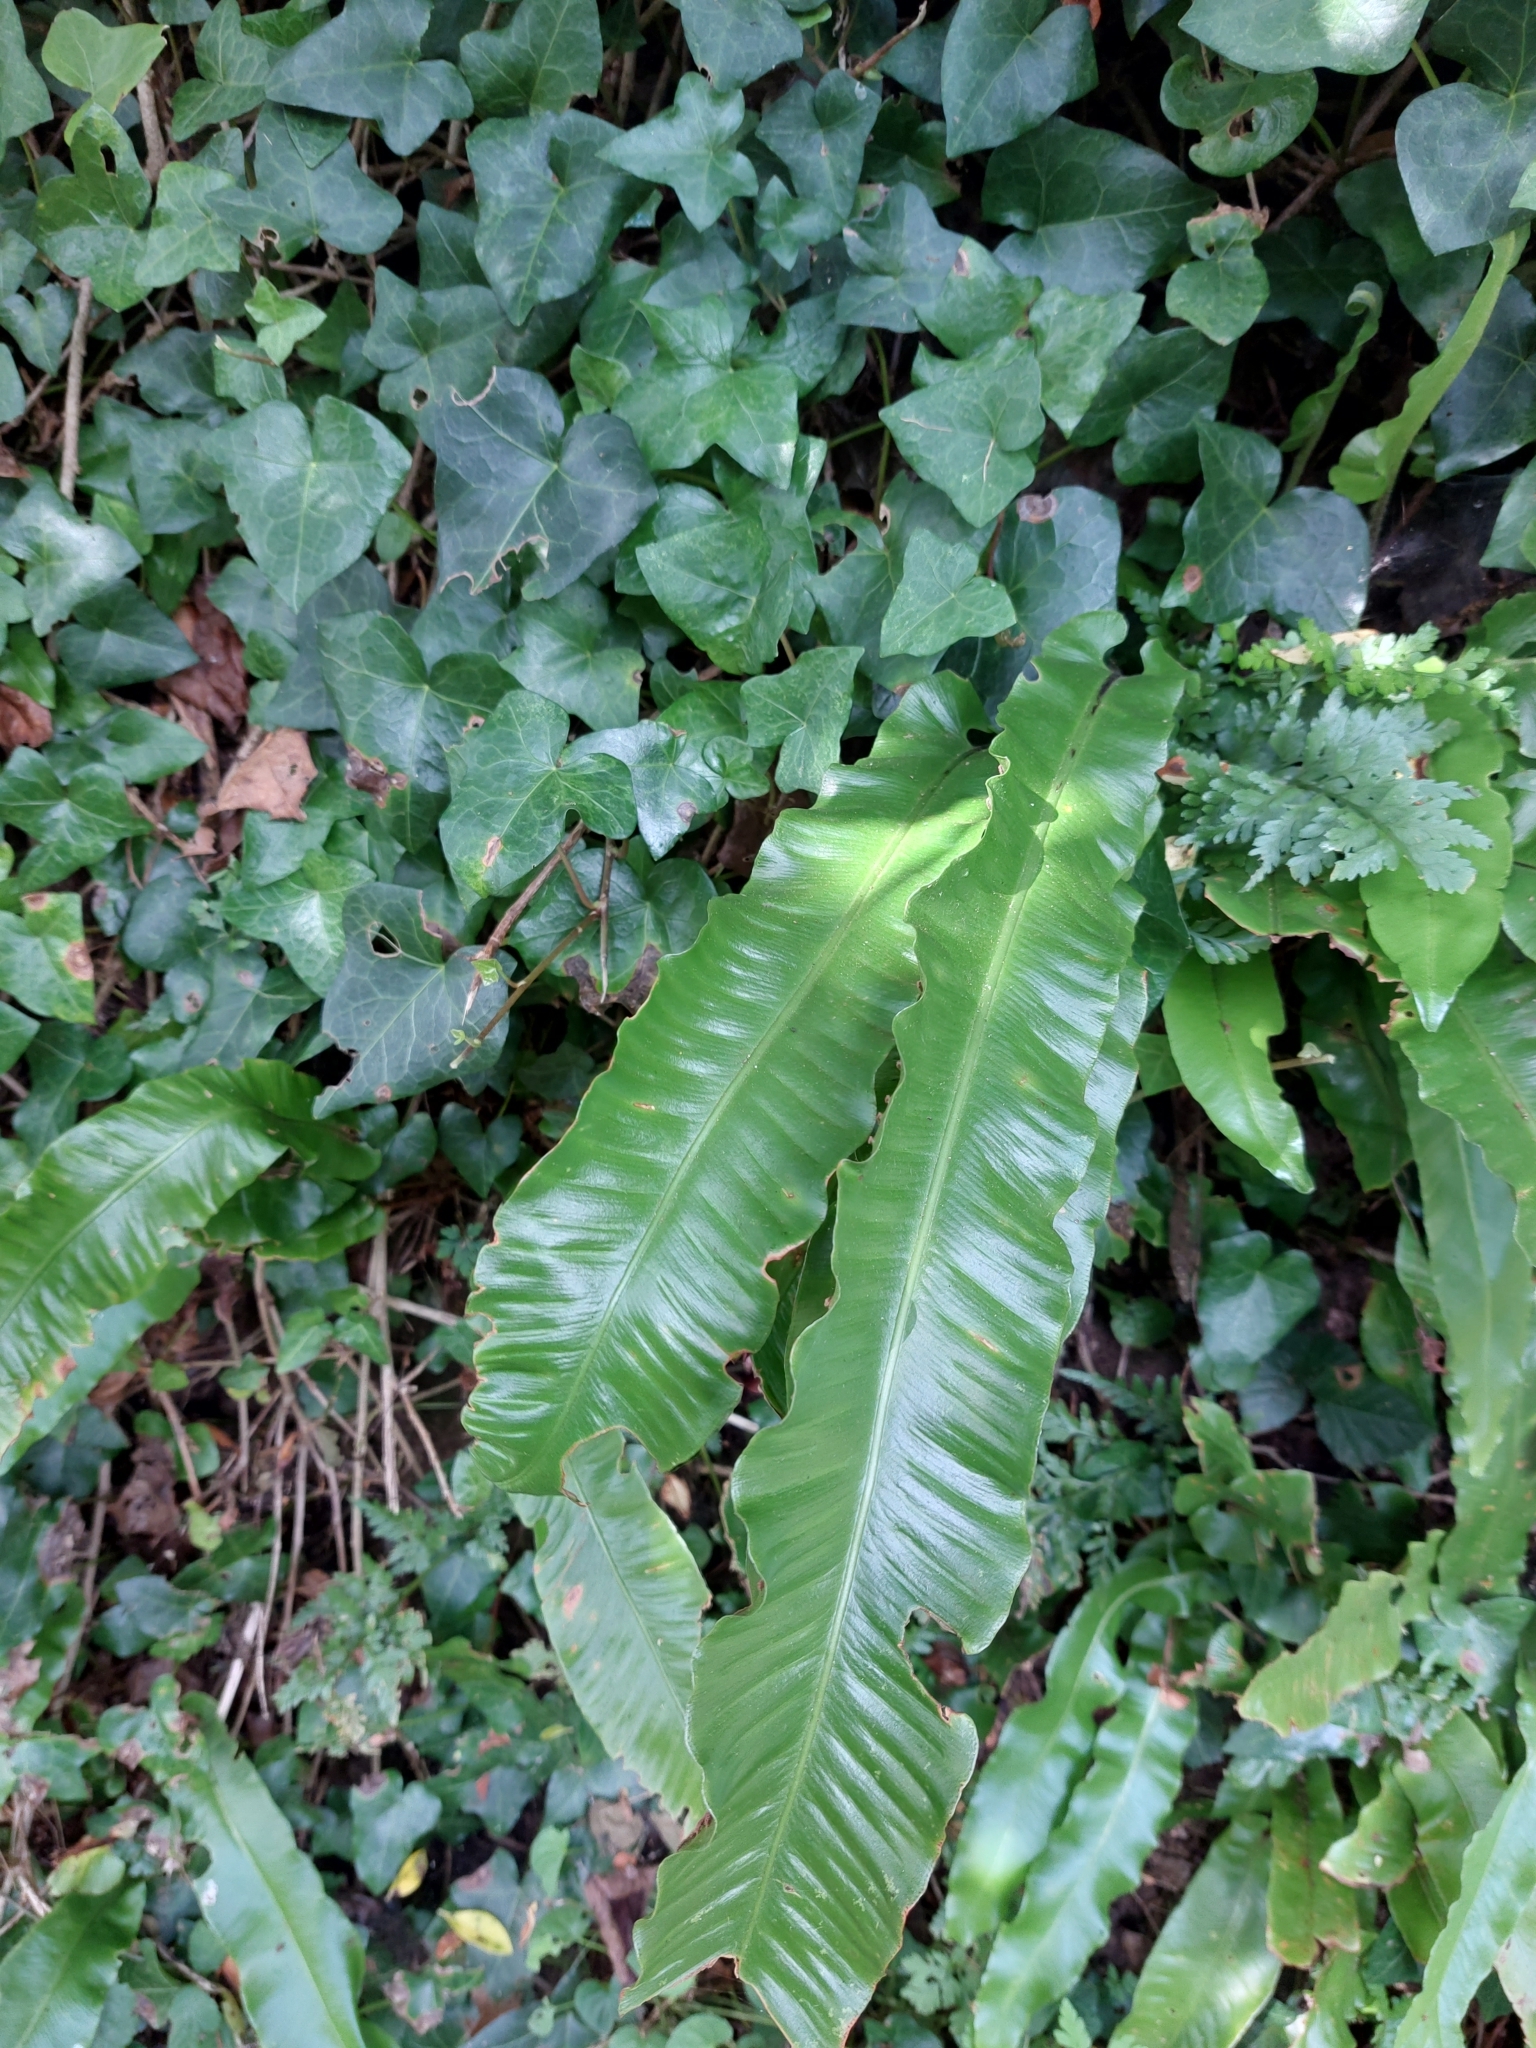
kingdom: Plantae
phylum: Tracheophyta
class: Polypodiopsida
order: Polypodiales
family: Aspleniaceae
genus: Asplenium
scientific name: Asplenium scolopendrium
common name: Hart's-tongue fern
